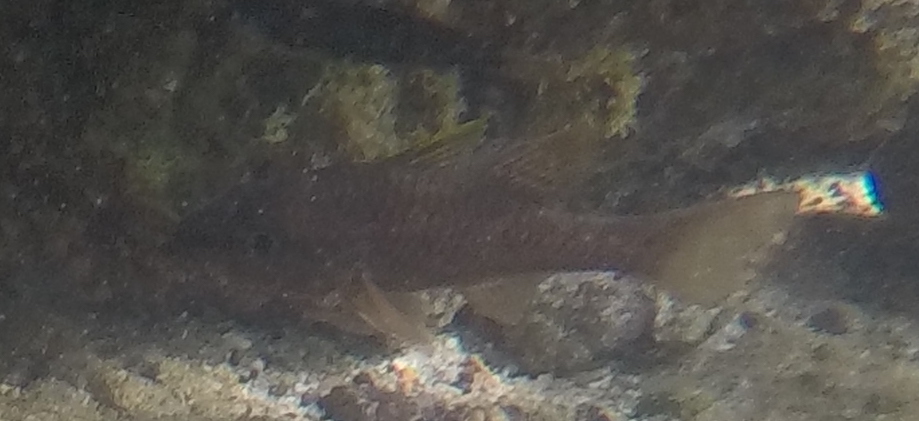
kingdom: Animalia
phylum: Chordata
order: Perciformes
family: Apogonidae
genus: Pristiapogon
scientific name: Pristiapogon kallopterus
